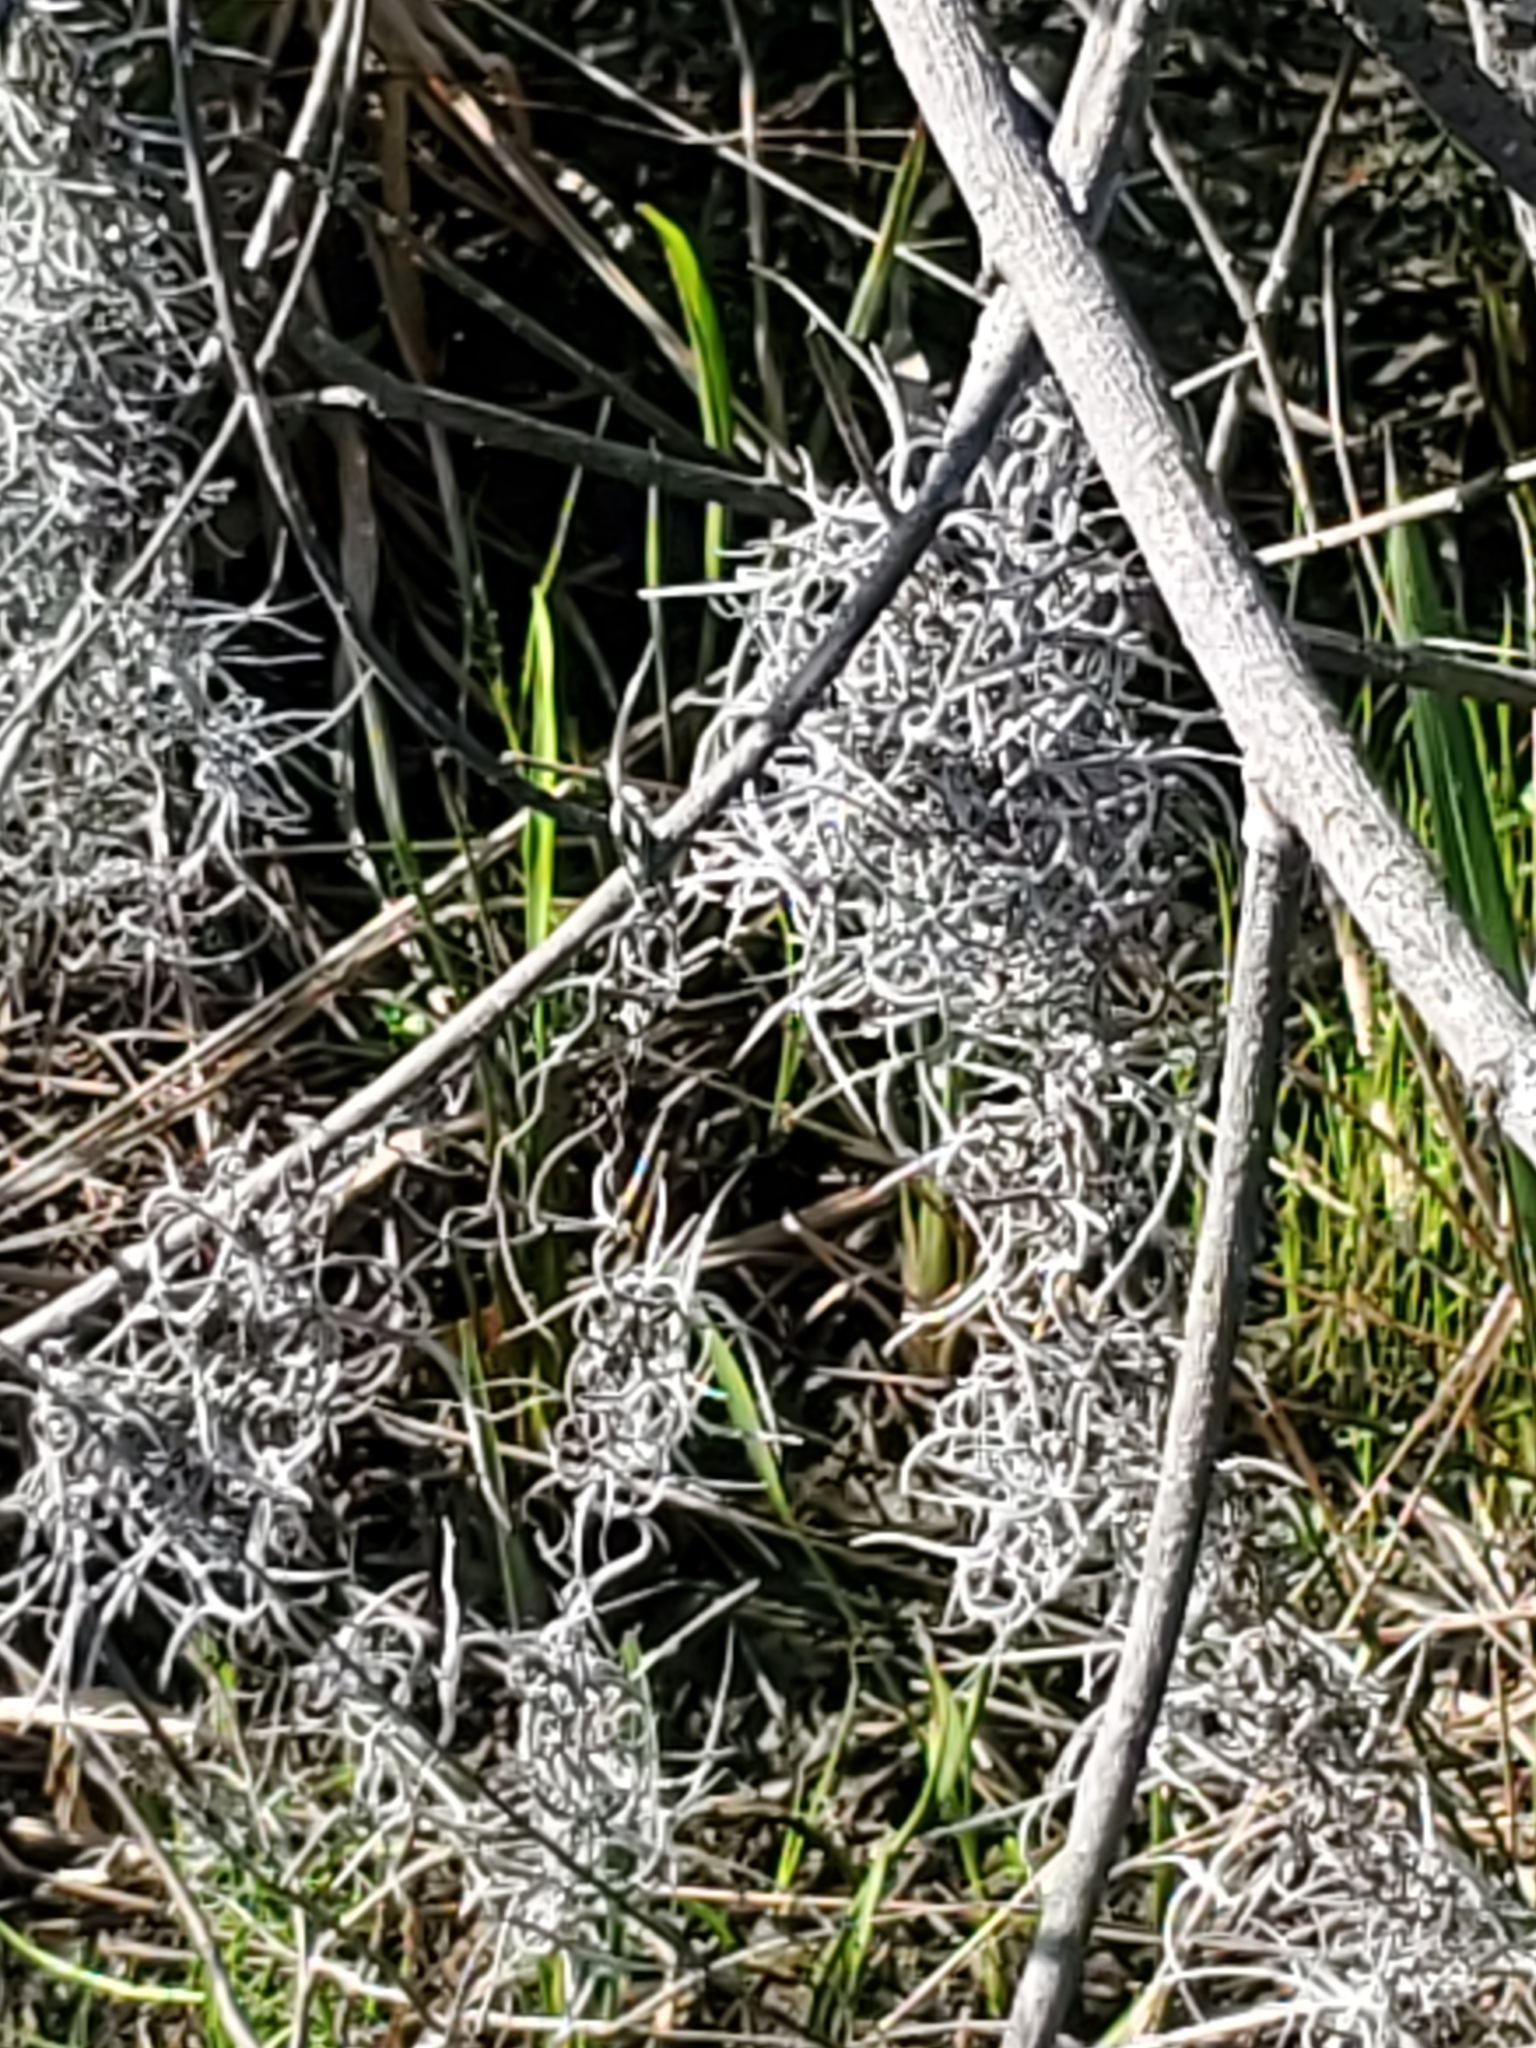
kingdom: Plantae
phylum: Tracheophyta
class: Liliopsida
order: Poales
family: Bromeliaceae
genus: Tillandsia
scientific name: Tillandsia usneoides
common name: Spanish moss
